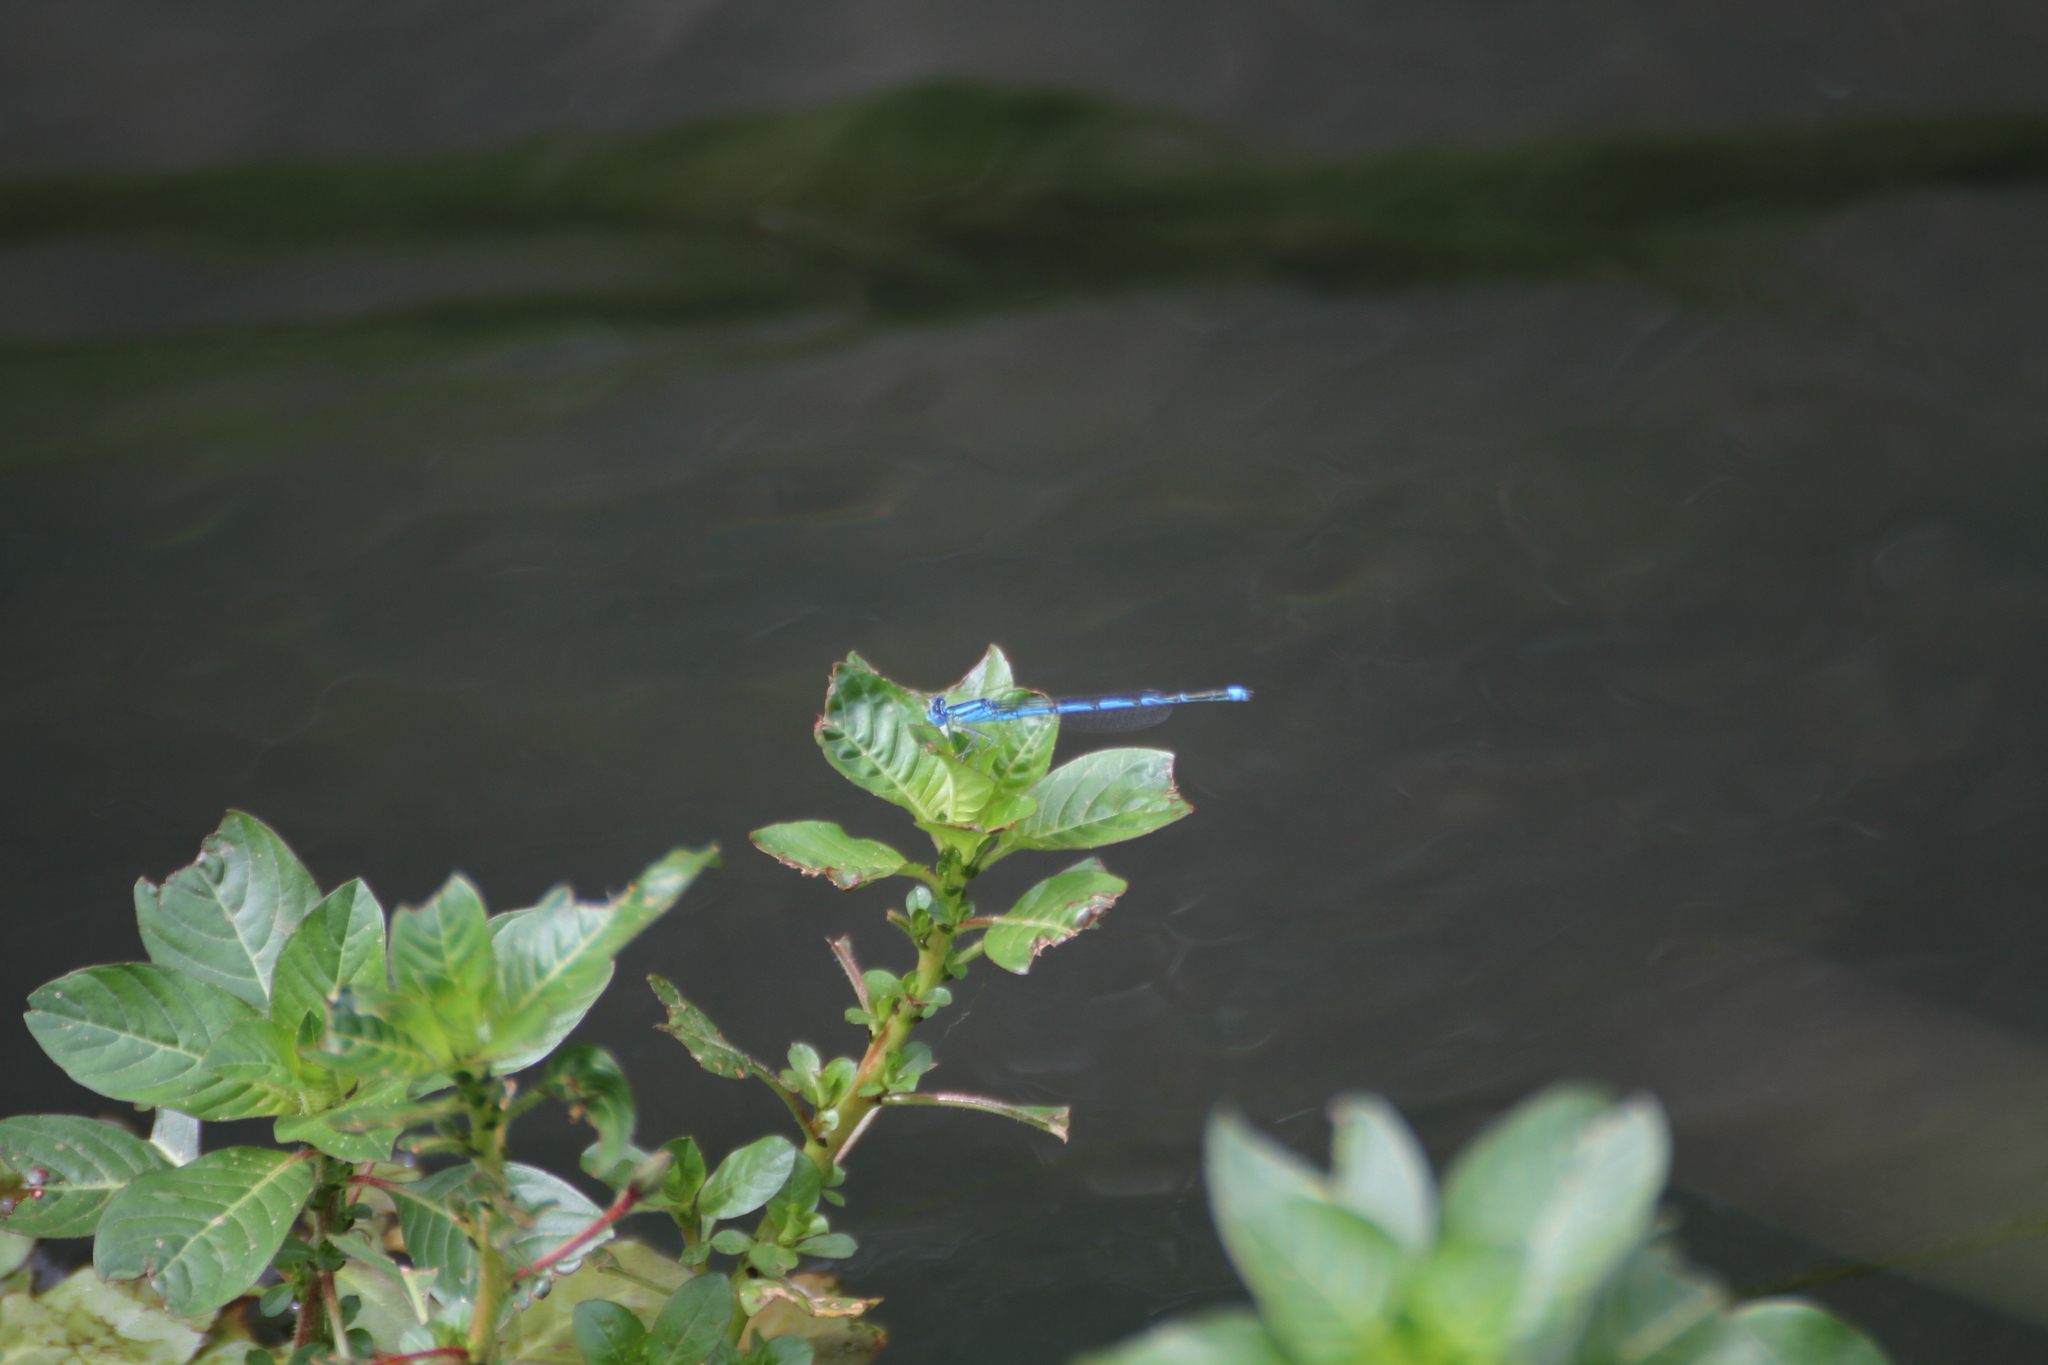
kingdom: Animalia
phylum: Arthropoda
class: Insecta
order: Odonata
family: Coenagrionidae
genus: Erythromma
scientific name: Erythromma lindenii
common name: Blue-eye
